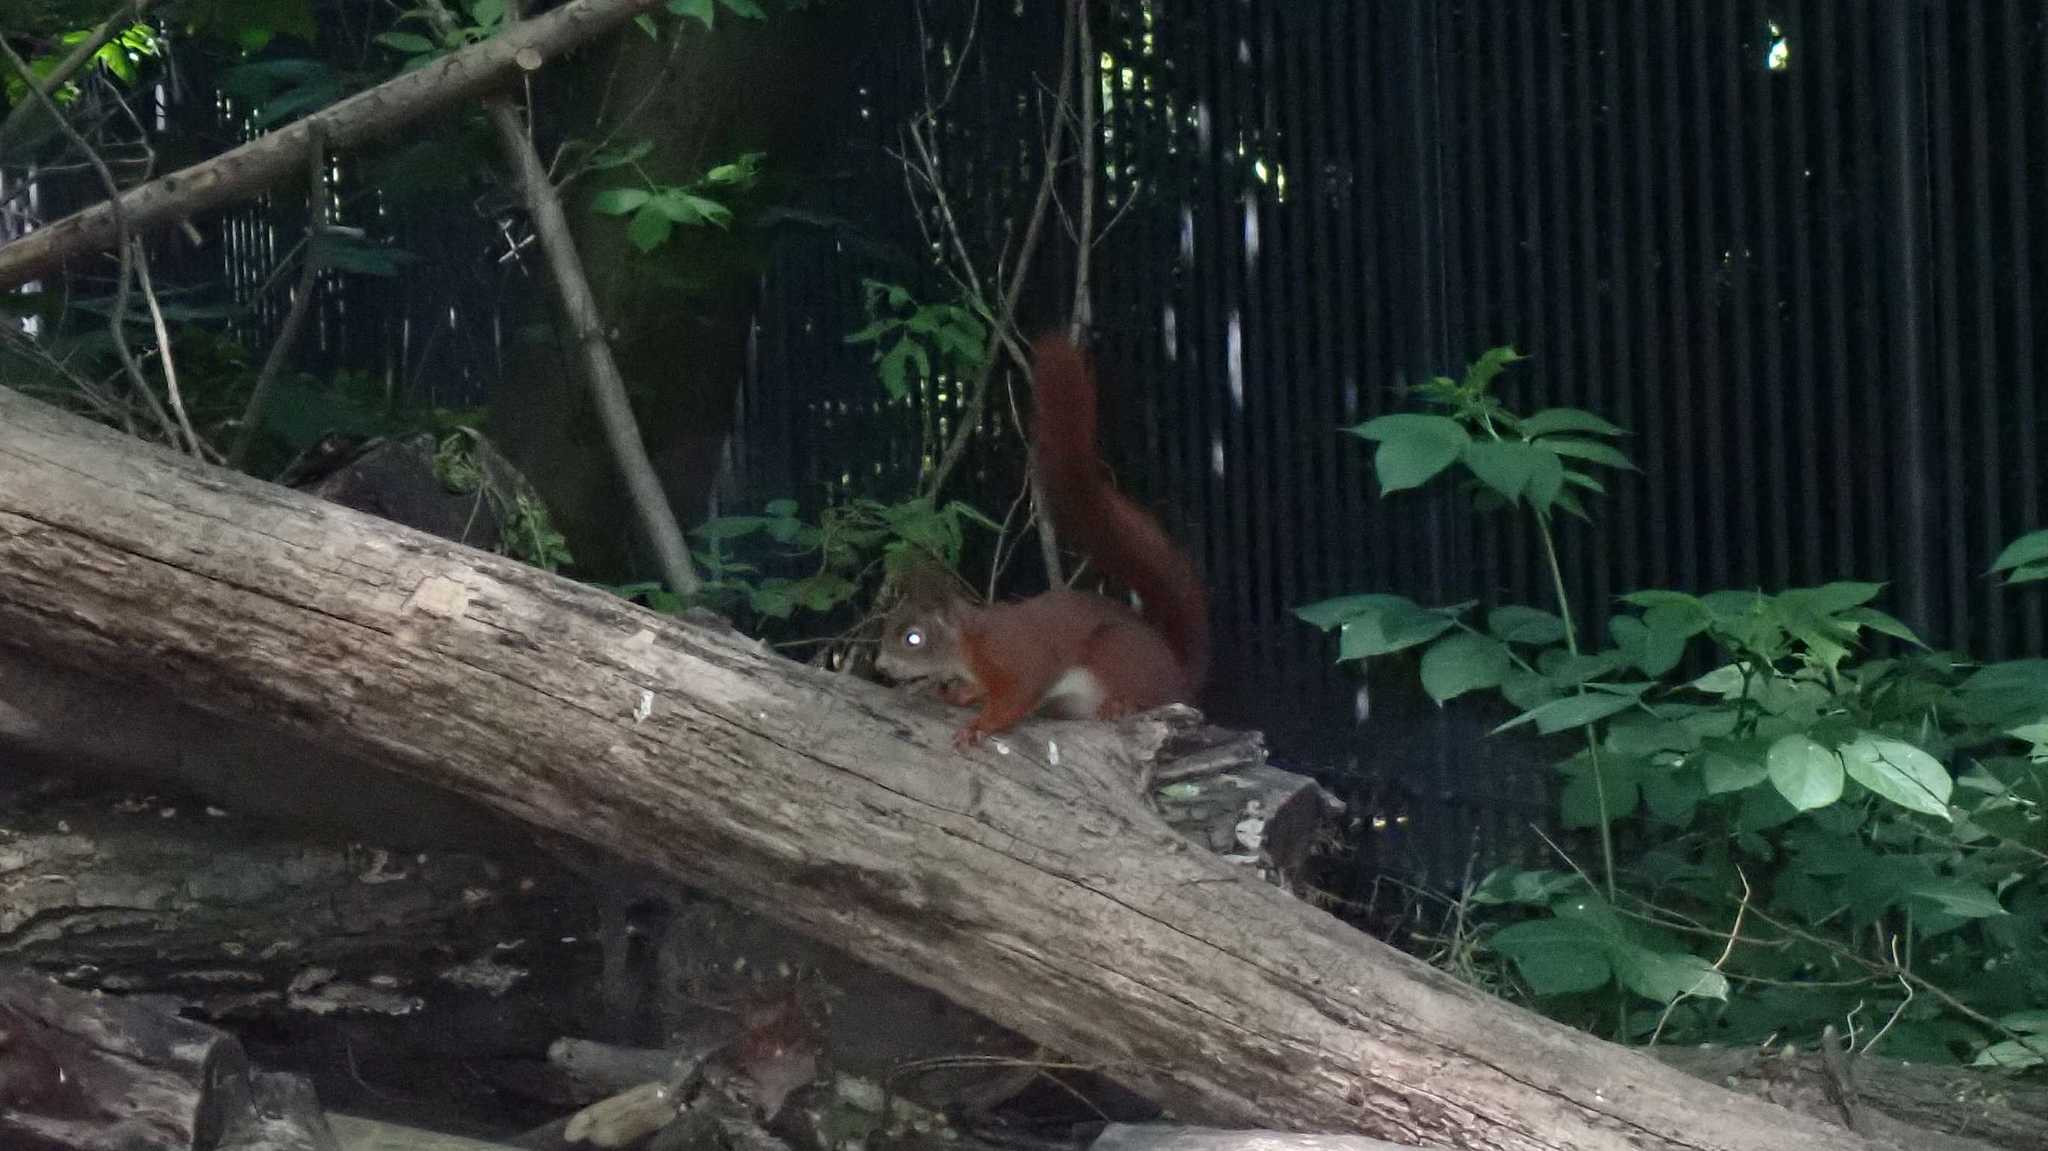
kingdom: Animalia
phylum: Chordata
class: Mammalia
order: Rodentia
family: Sciuridae
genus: Sciurus
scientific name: Sciurus vulgaris
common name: Eurasian red squirrel
